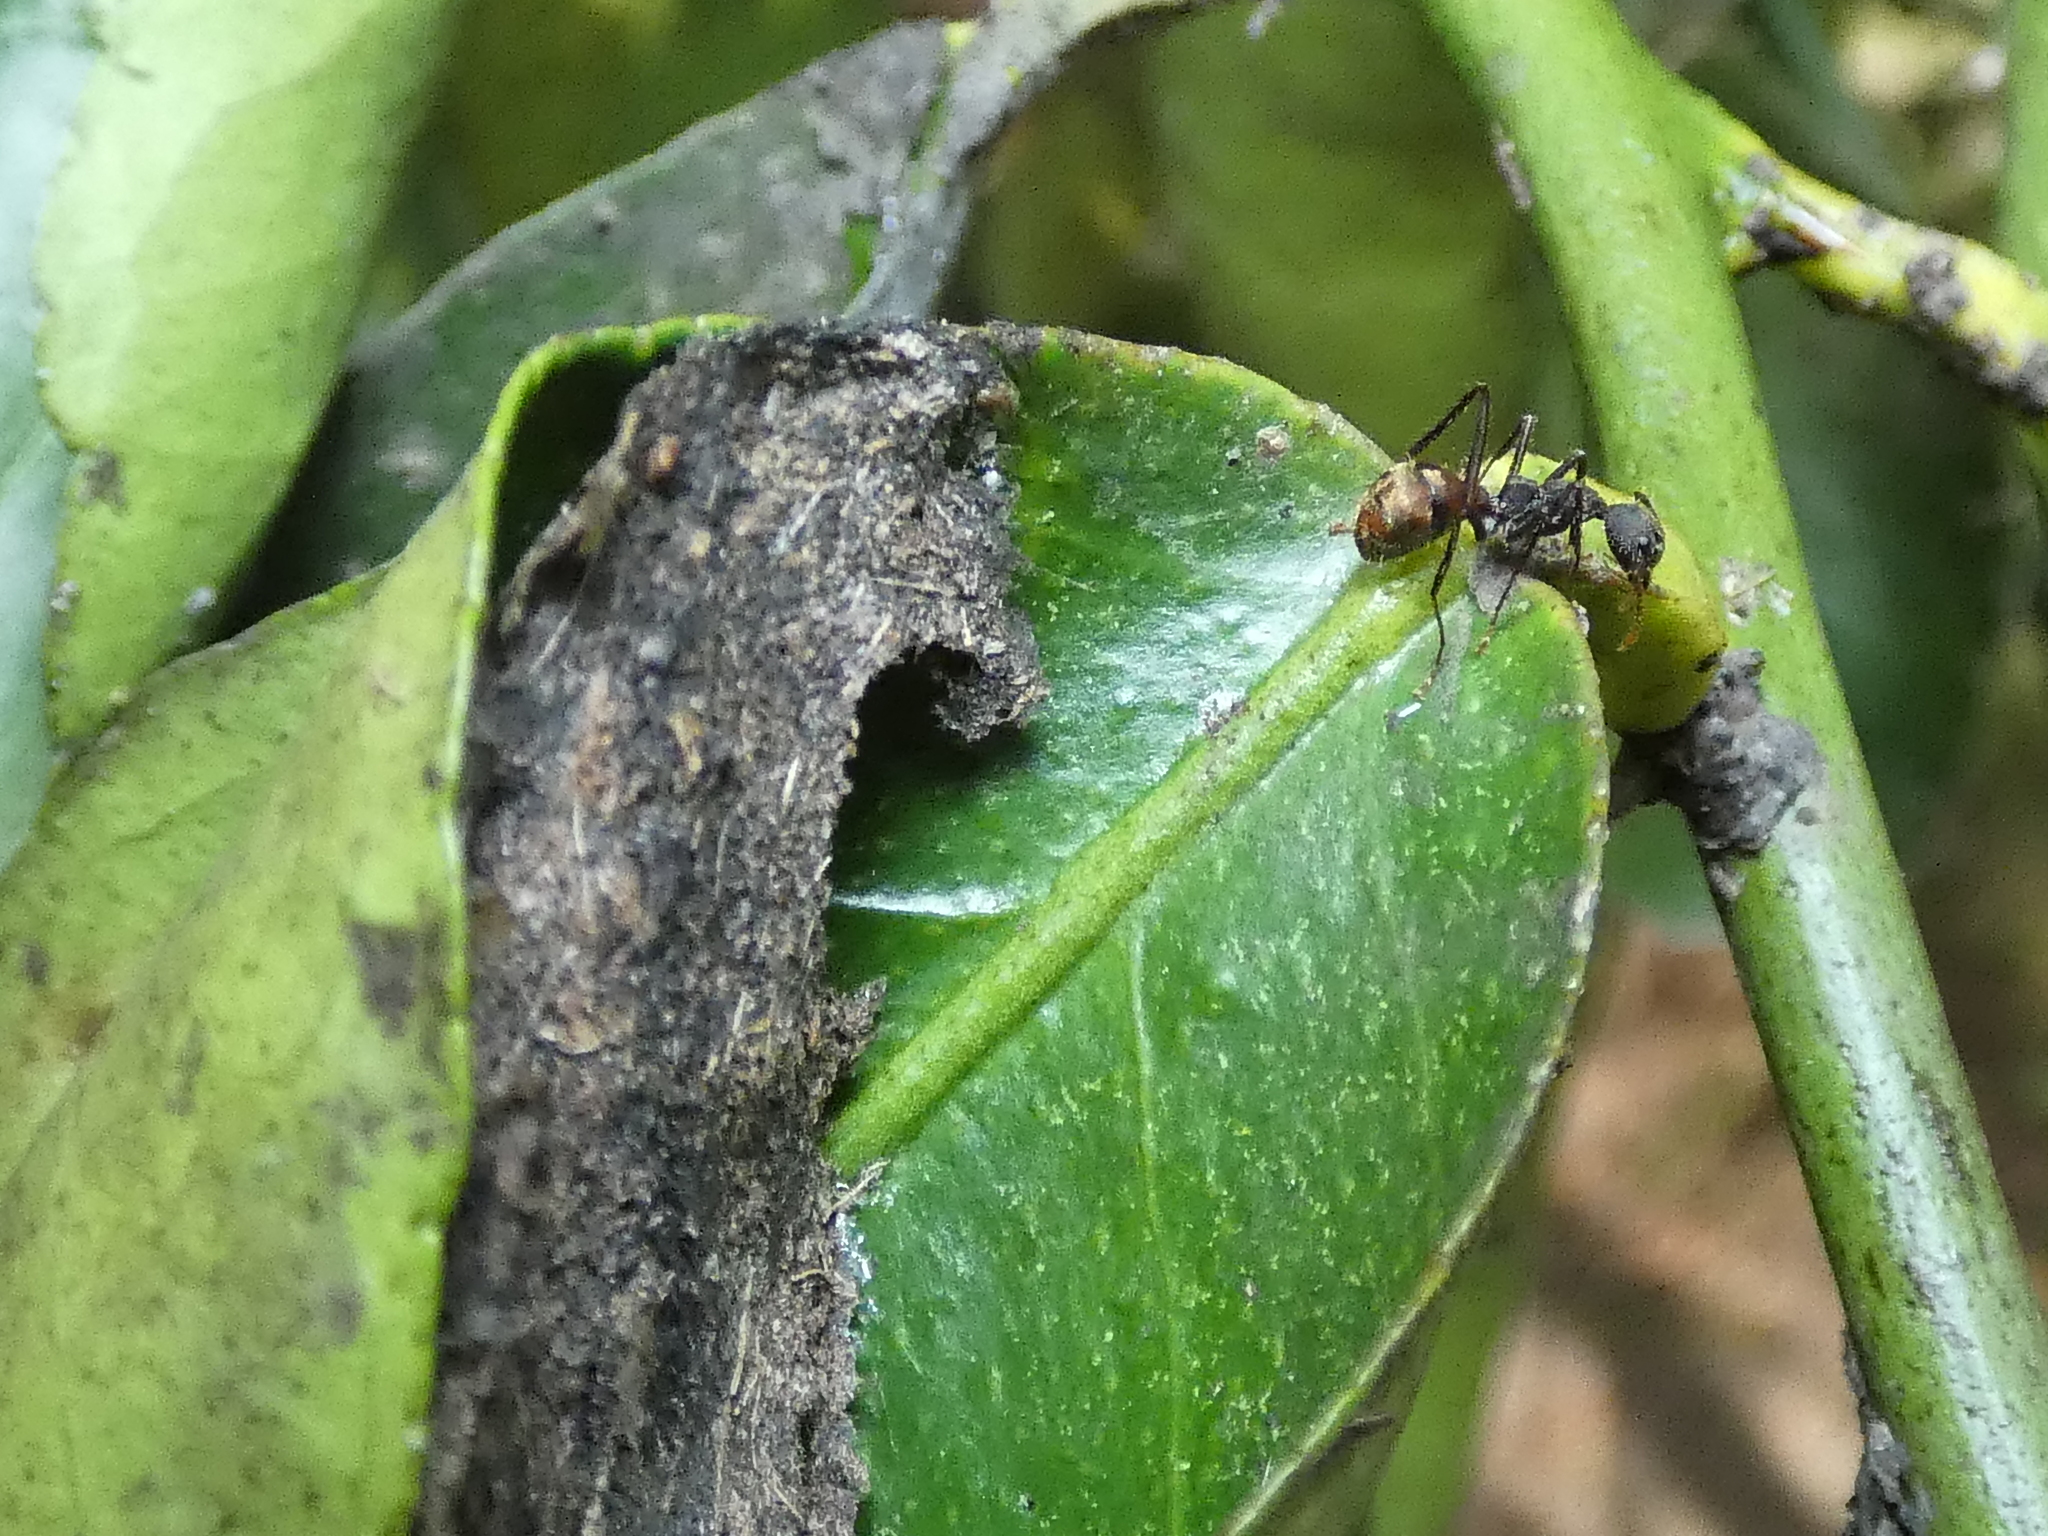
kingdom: Animalia
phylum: Arthropoda
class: Insecta
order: Hymenoptera
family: Formicidae
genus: Dolichoderus
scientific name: Dolichoderus bidens
